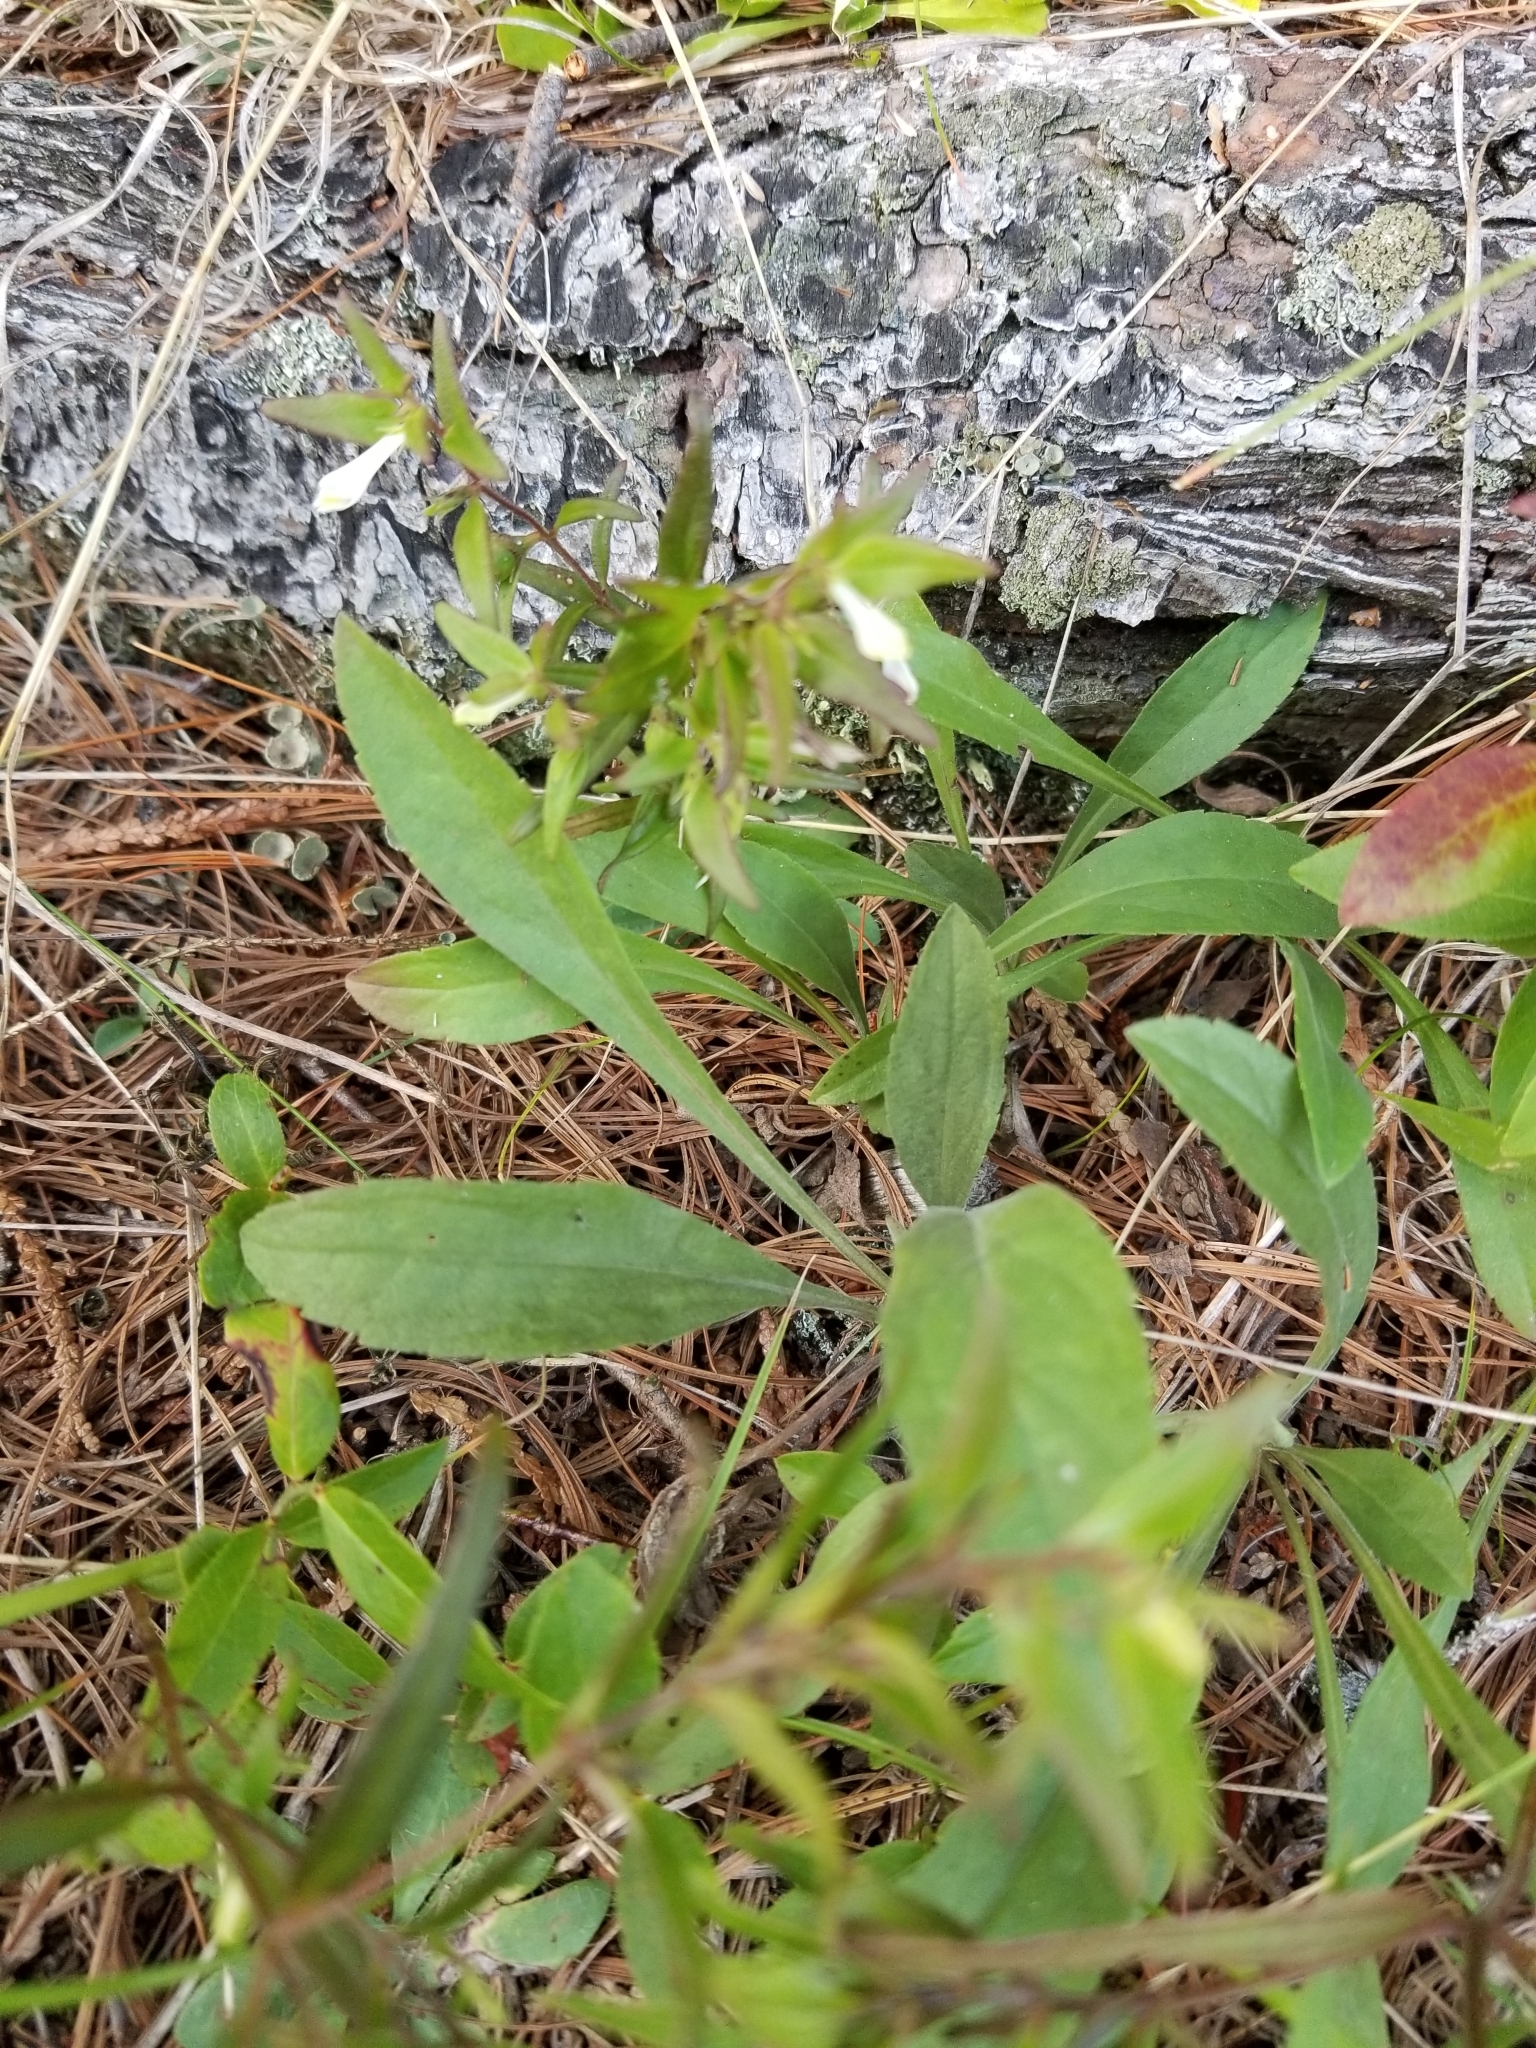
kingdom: Plantae
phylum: Tracheophyta
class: Magnoliopsida
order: Lamiales
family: Orobanchaceae
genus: Melampyrum
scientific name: Melampyrum lineare
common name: American cow-wheat
